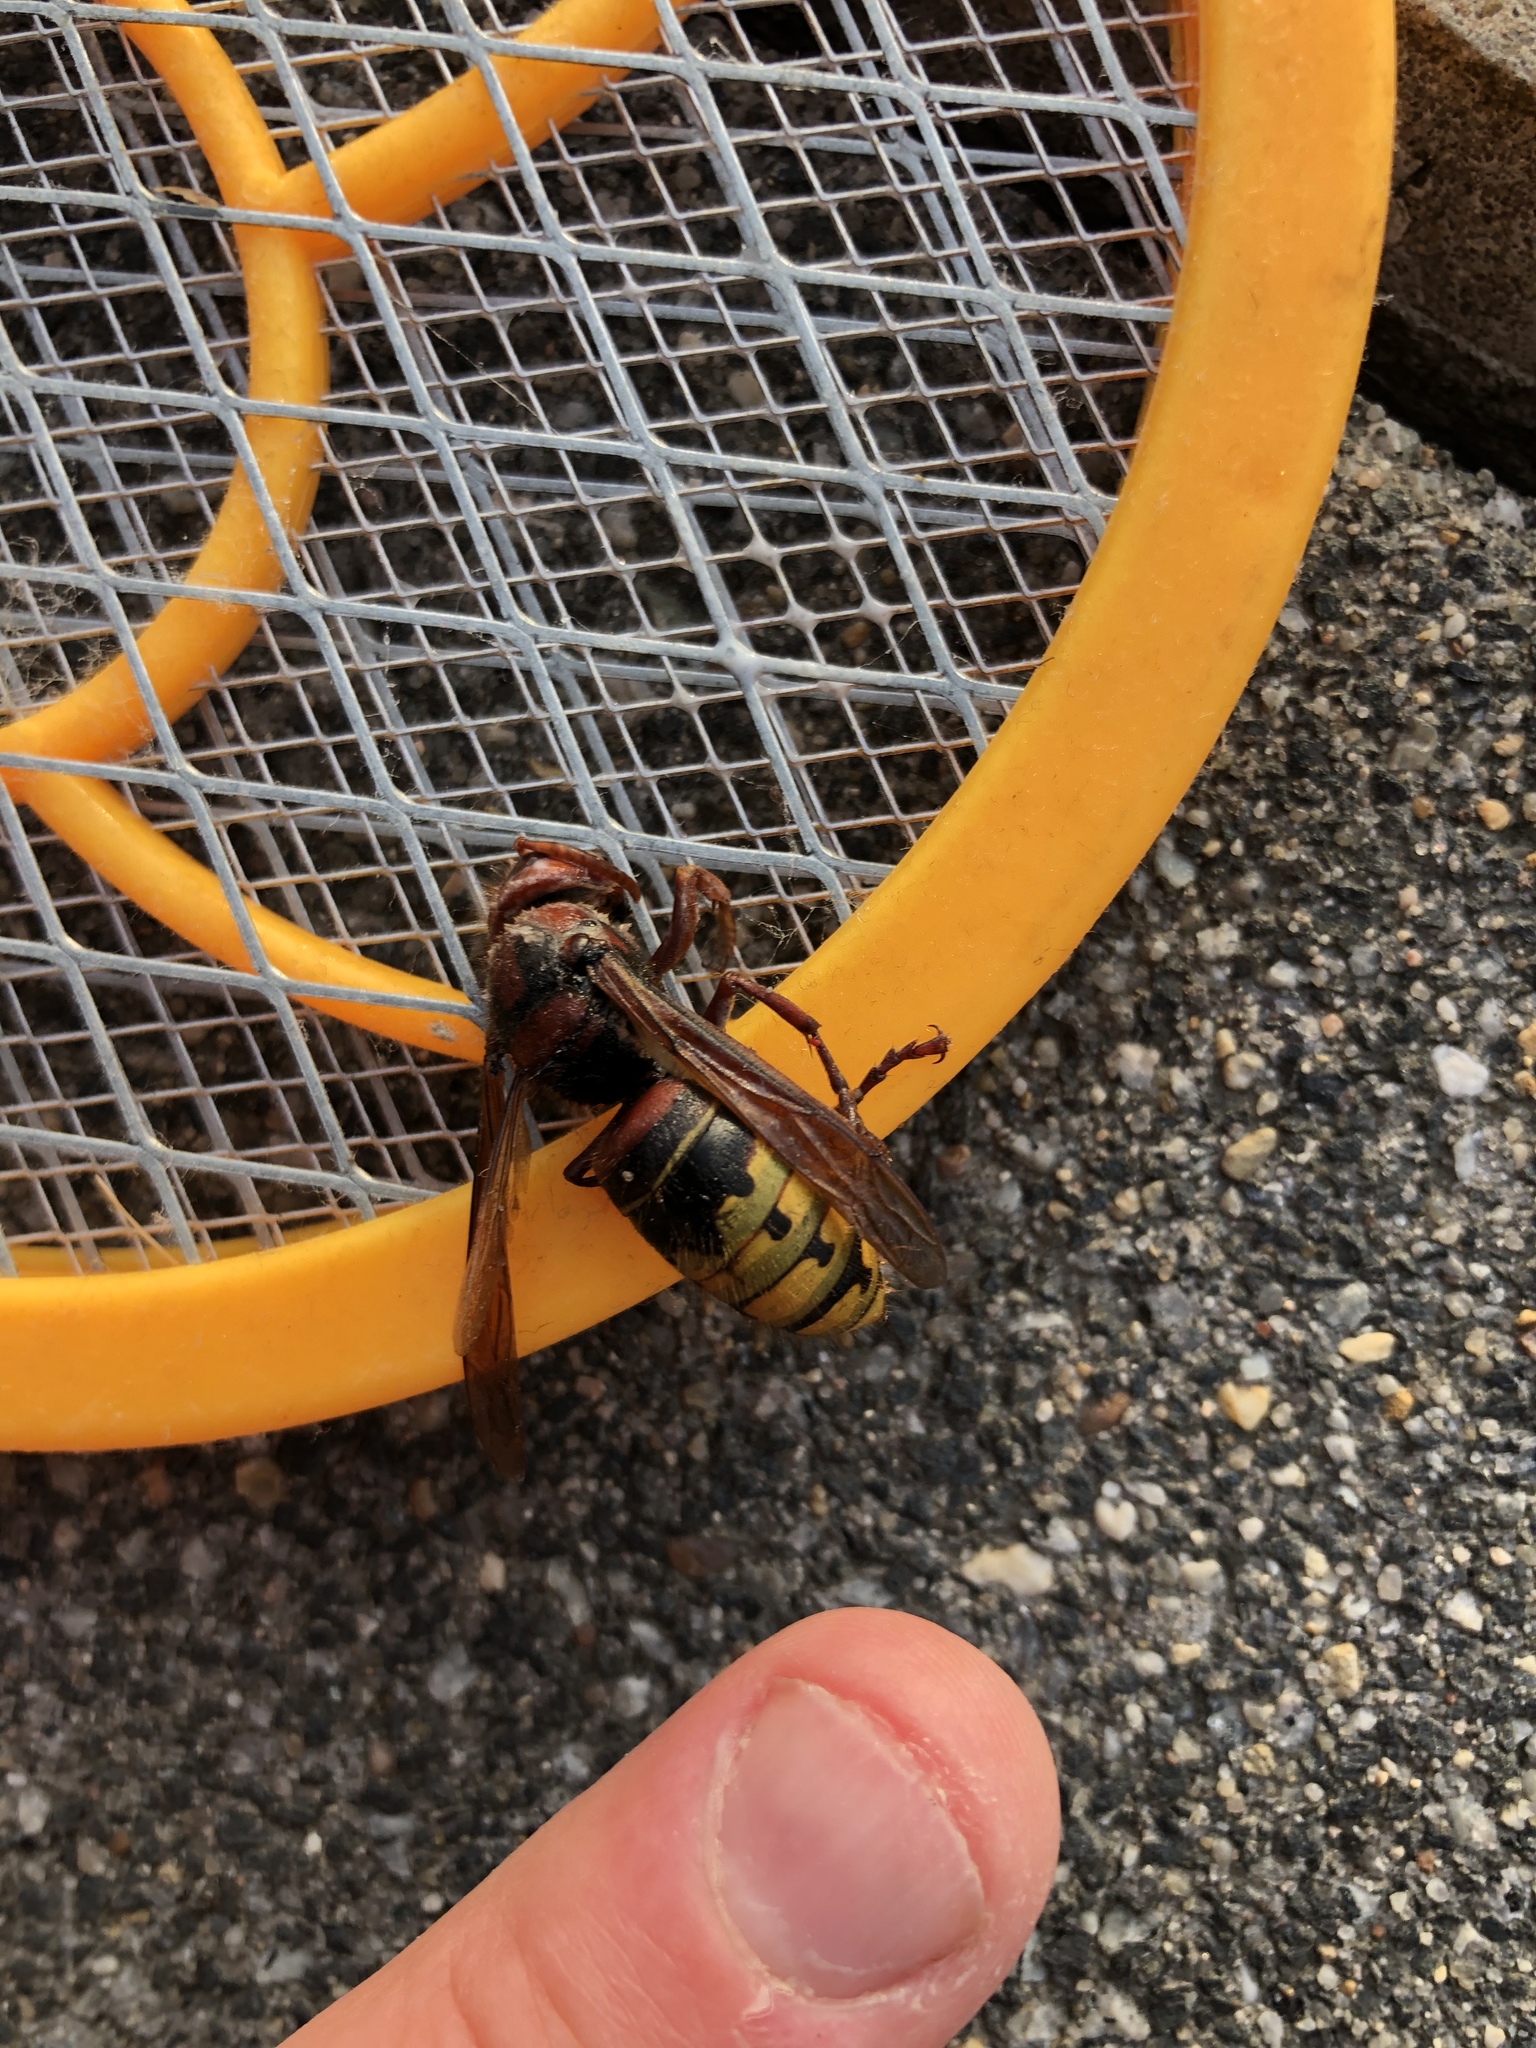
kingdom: Animalia
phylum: Arthropoda
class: Insecta
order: Hymenoptera
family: Vespidae
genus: Vespa
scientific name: Vespa crabro
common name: Hornet
